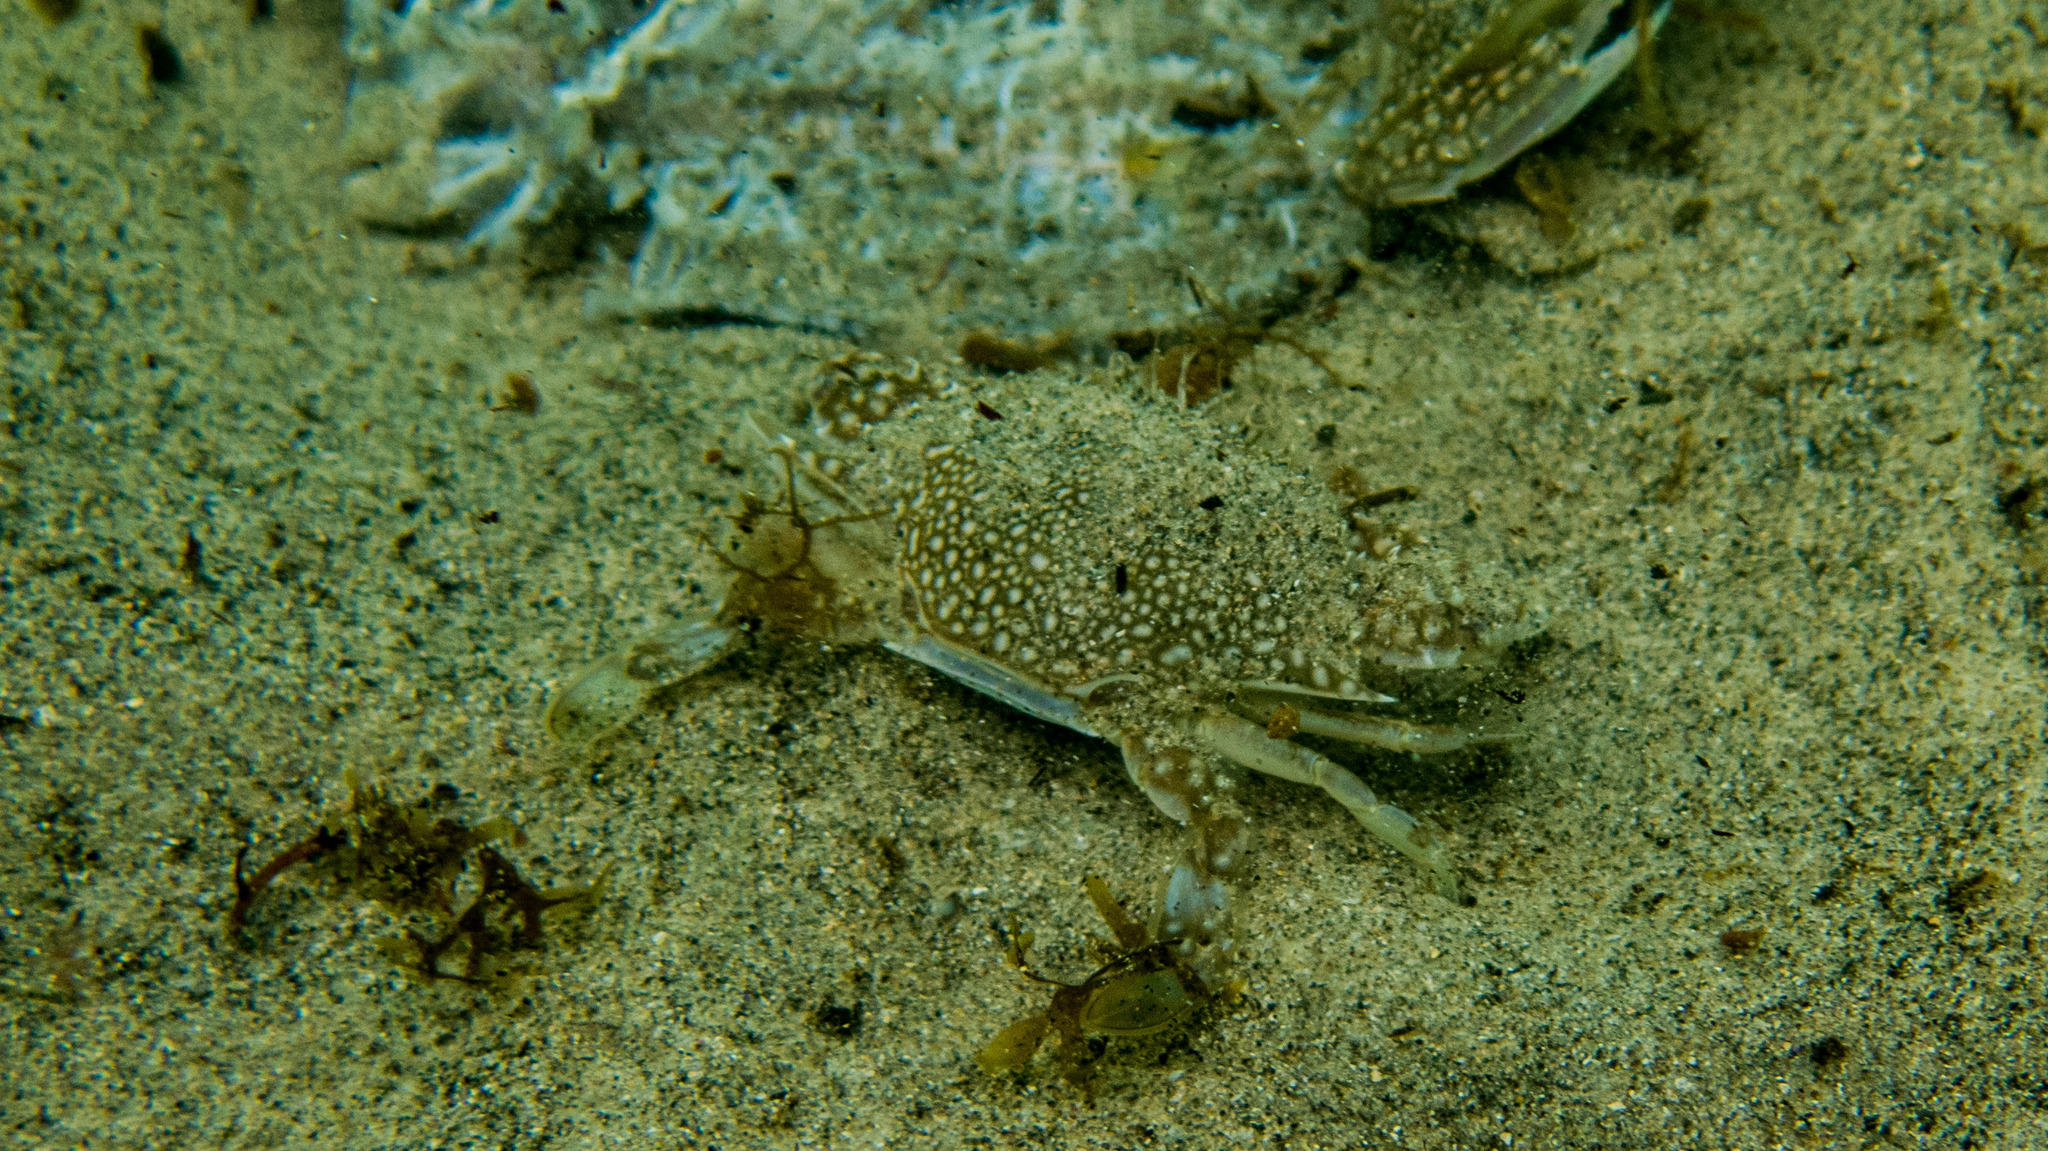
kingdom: Animalia
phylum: Arthropoda
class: Malacostraca
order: Decapoda
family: Portunidae
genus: Arenaeus
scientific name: Arenaeus cribrarius
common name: Speckled crab
